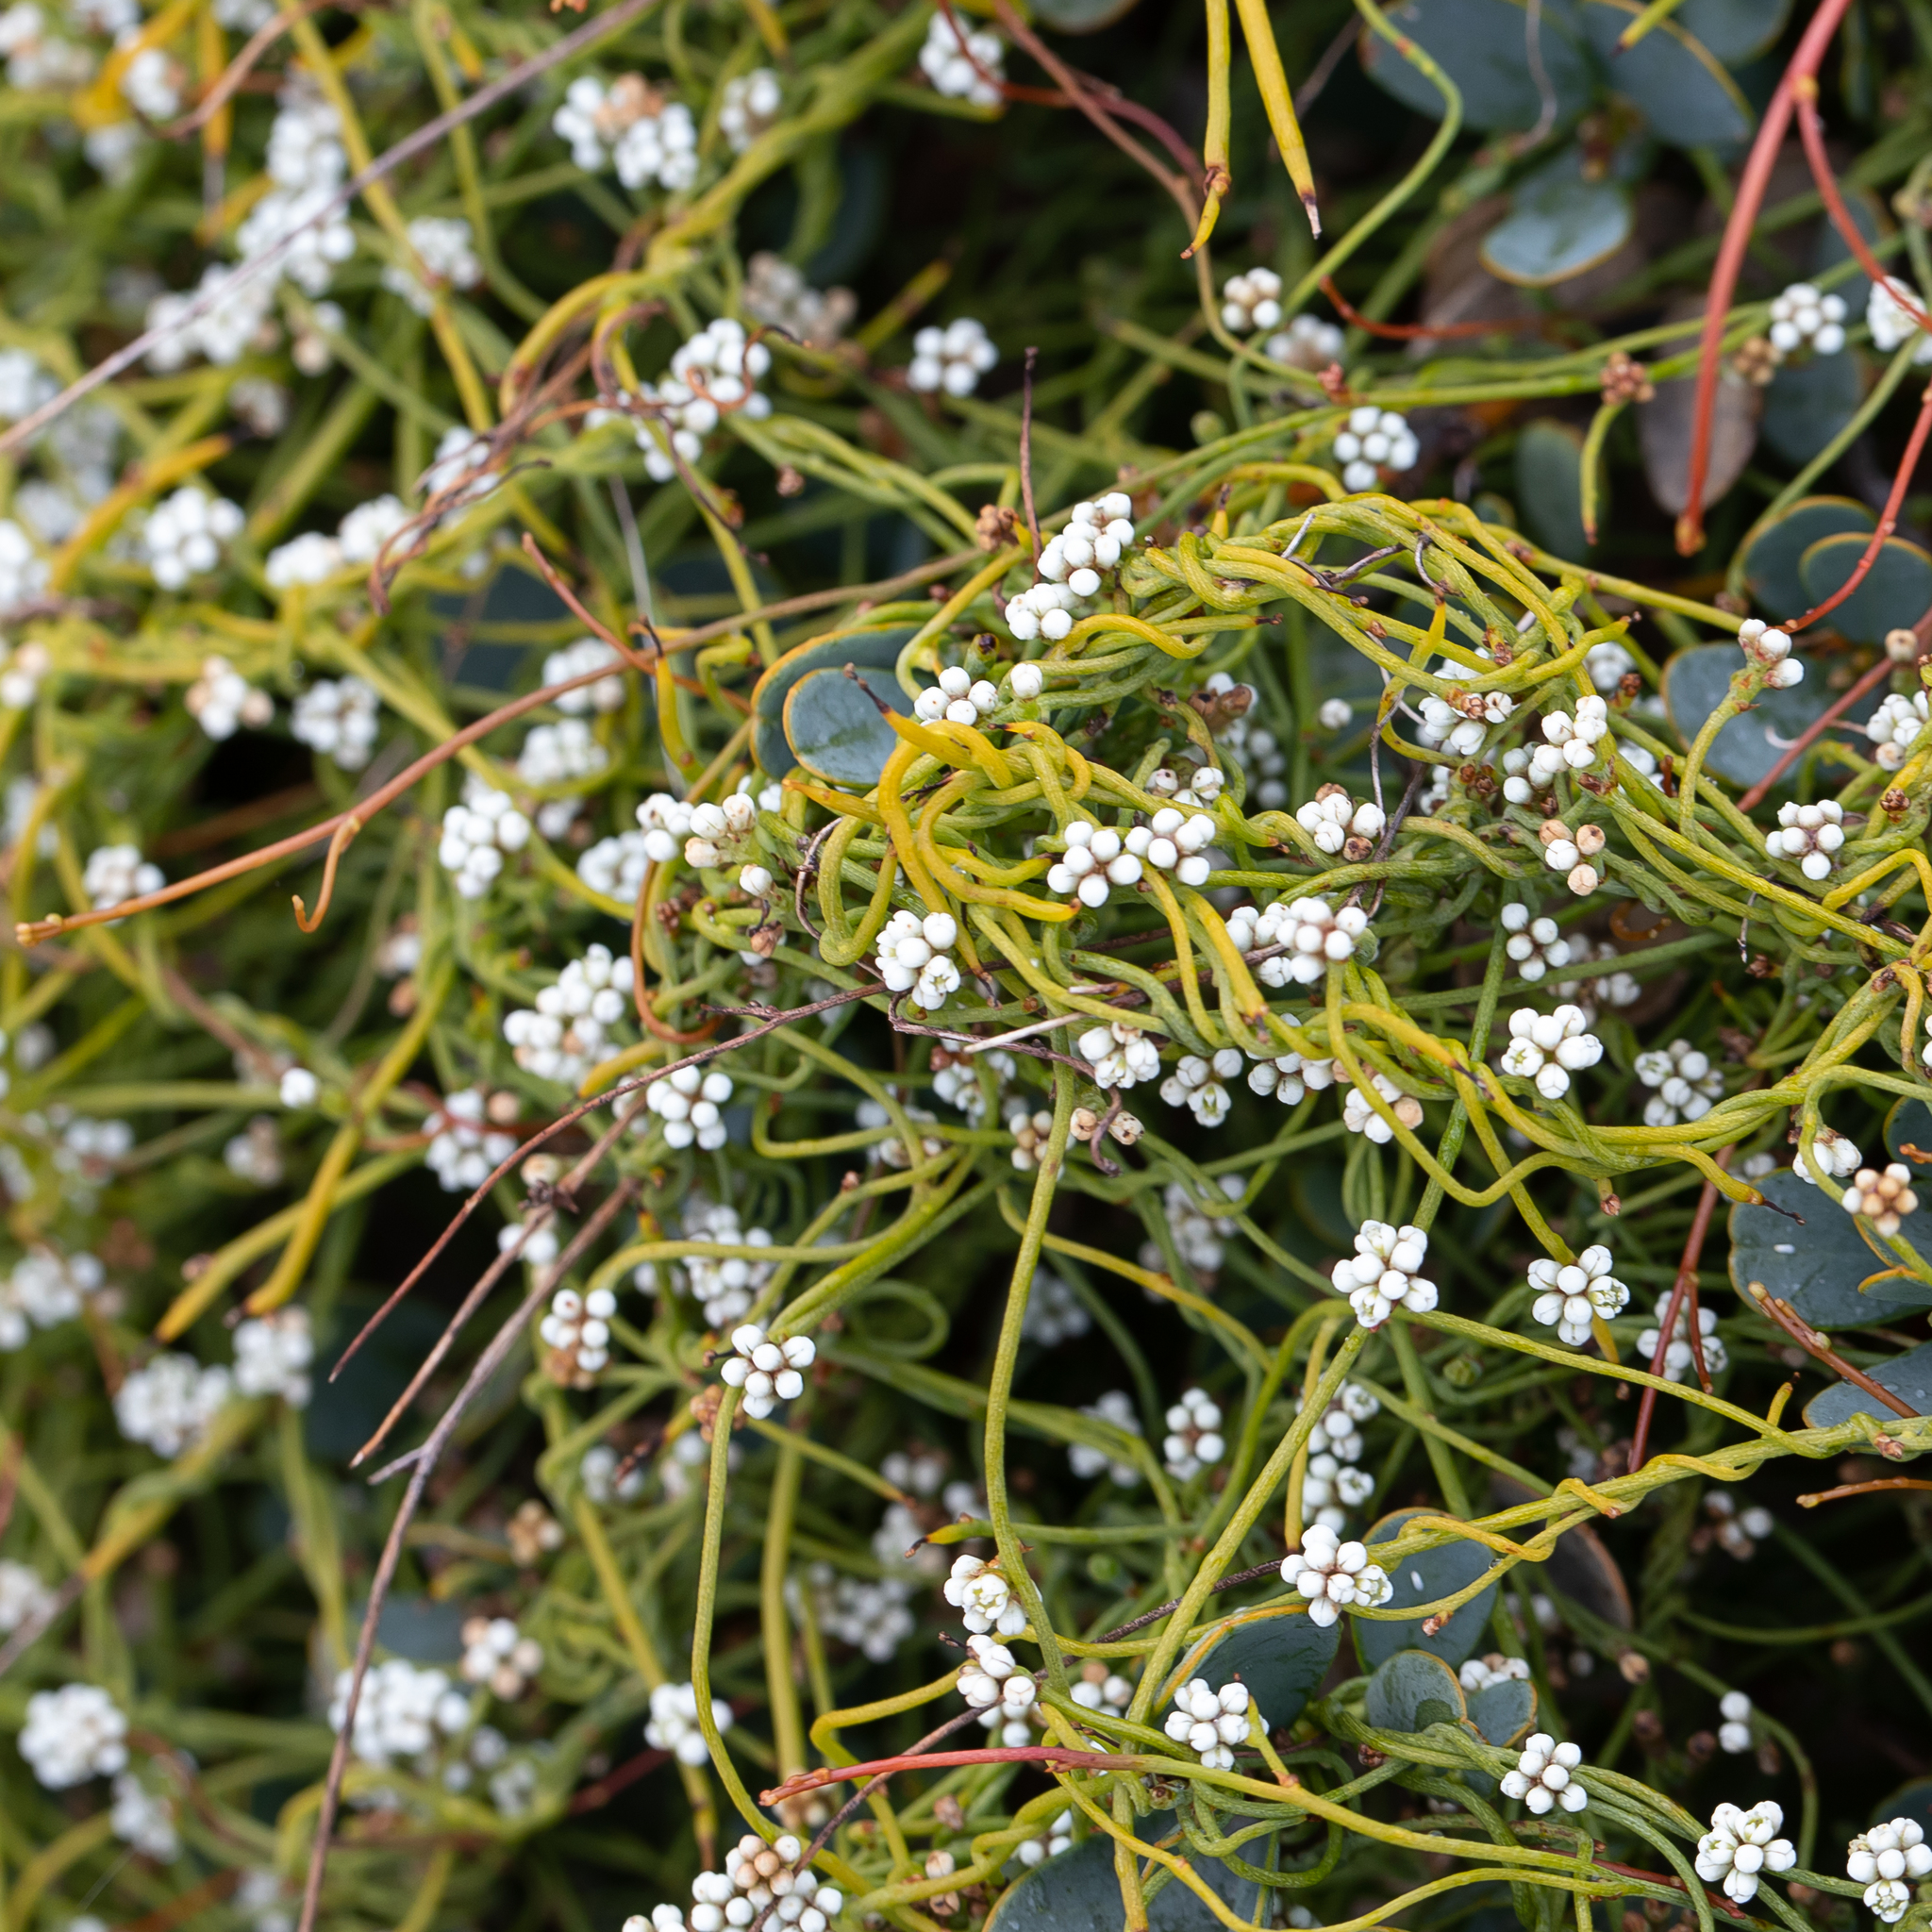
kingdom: Plantae
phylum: Tracheophyta
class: Magnoliopsida
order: Laurales
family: Lauraceae
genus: Cassytha
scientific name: Cassytha glabella
